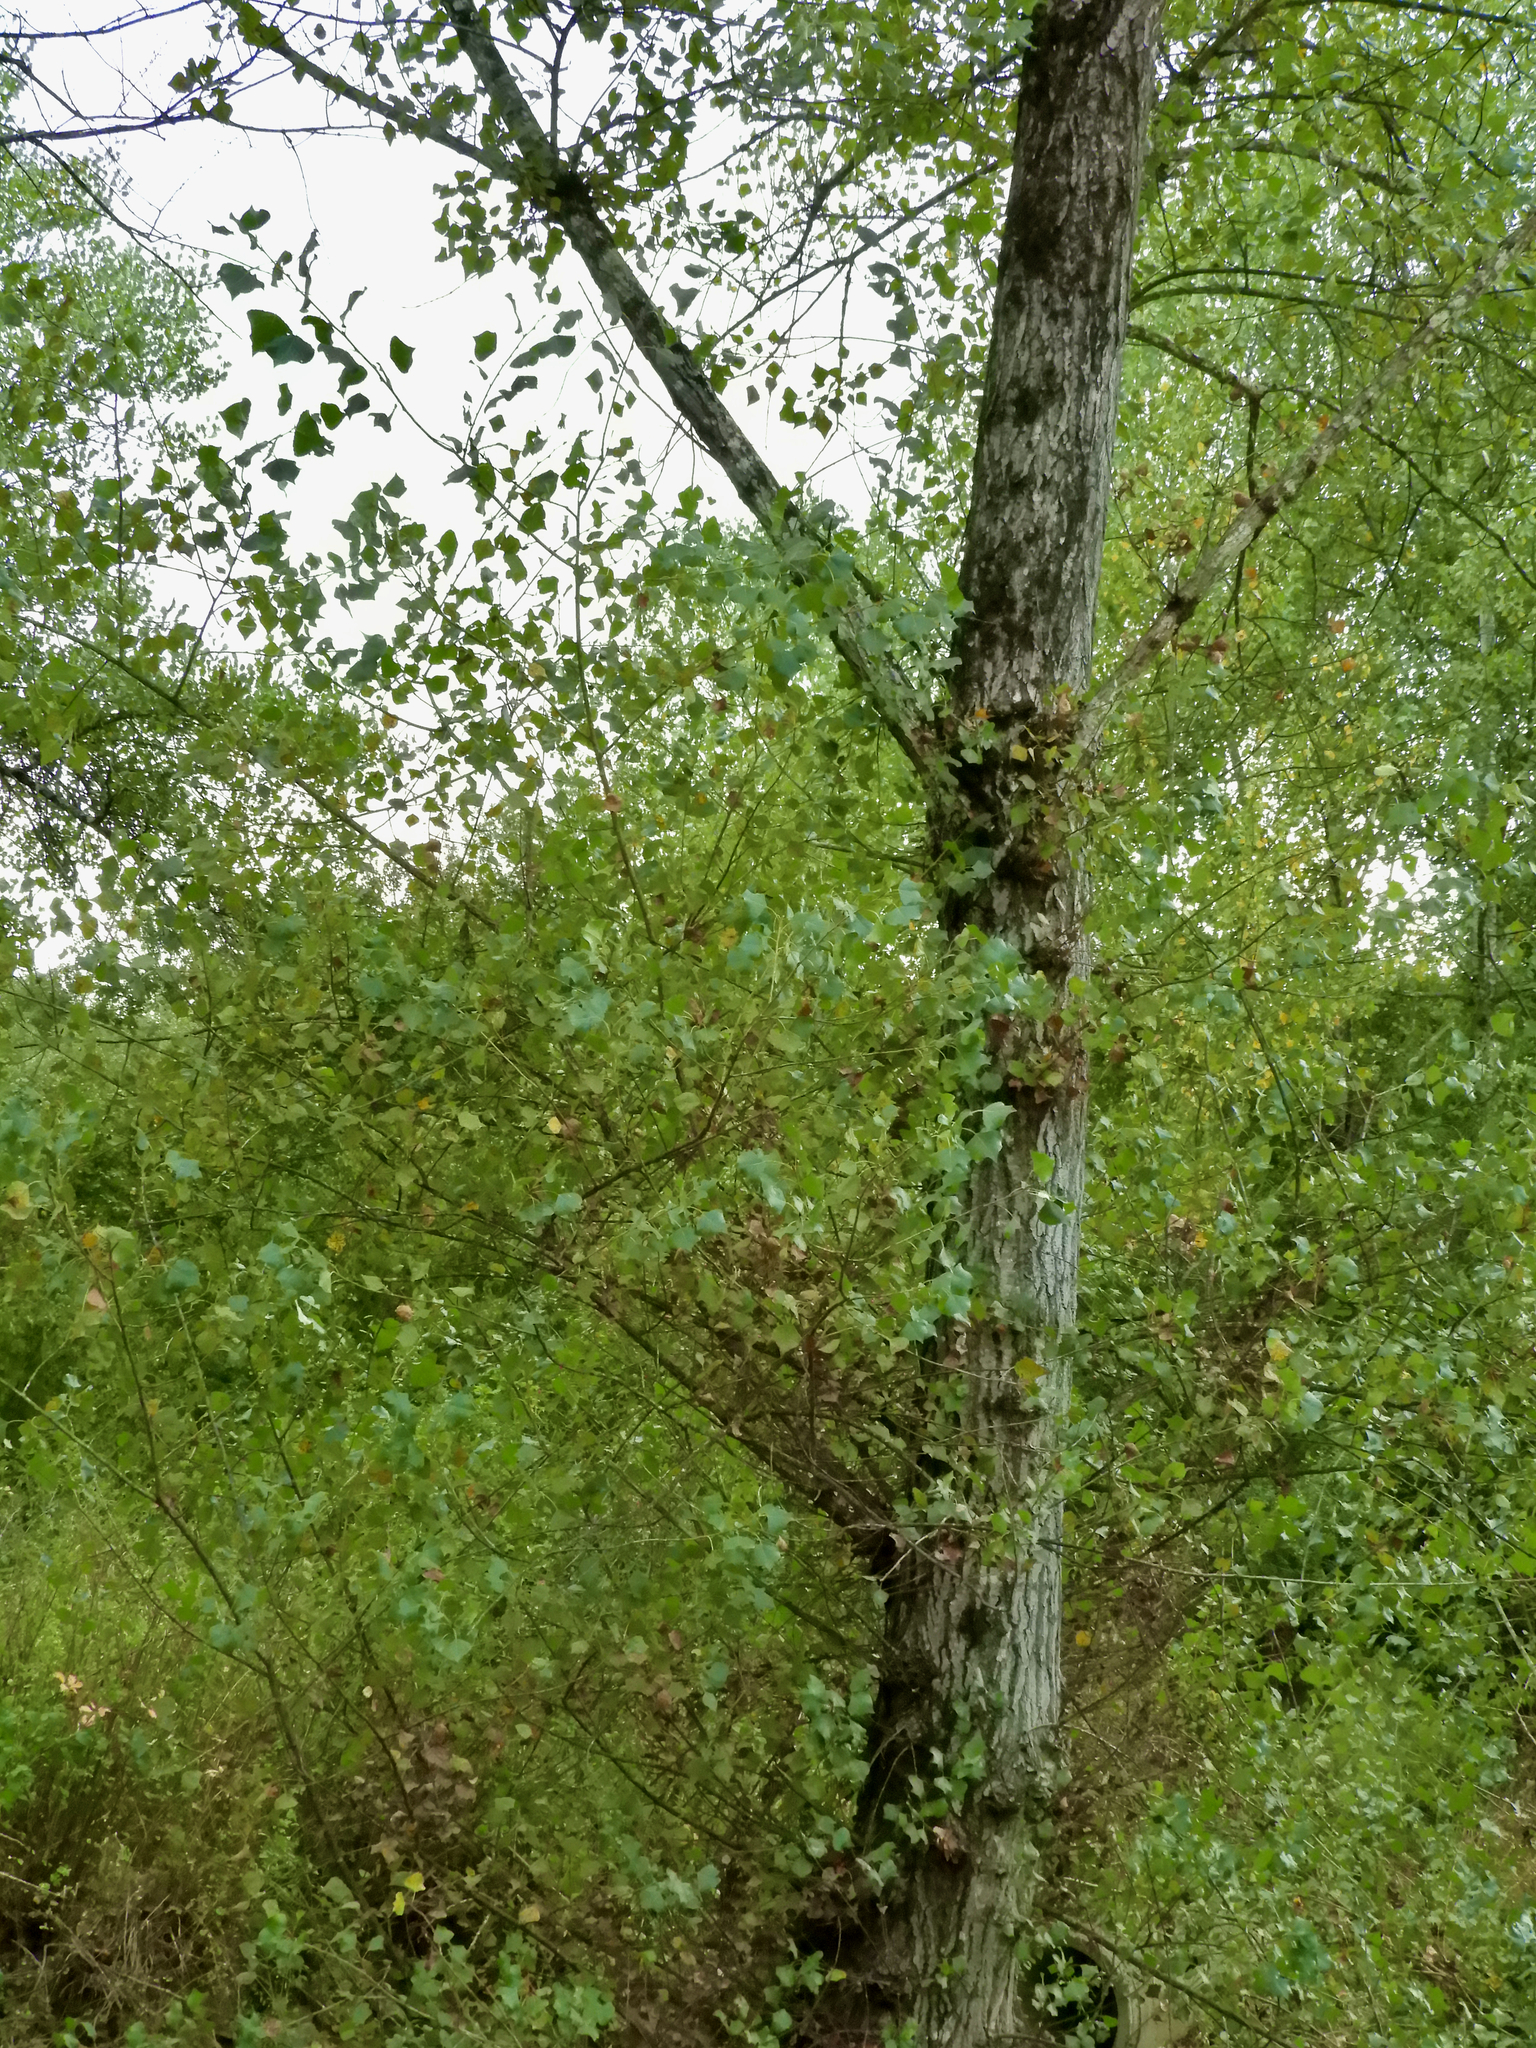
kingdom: Plantae
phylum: Tracheophyta
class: Magnoliopsida
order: Malpighiales
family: Salicaceae
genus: Populus
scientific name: Populus nigra
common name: Black poplar
